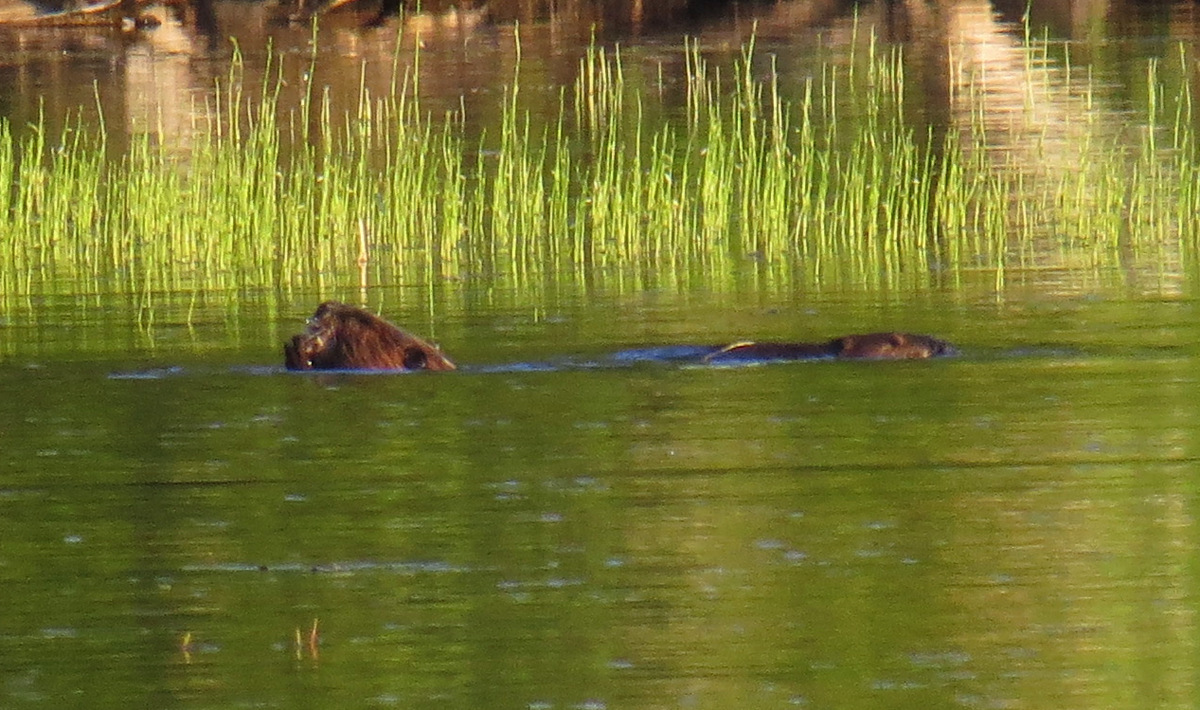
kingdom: Animalia
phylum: Chordata
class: Mammalia
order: Rodentia
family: Castoridae
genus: Castor
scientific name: Castor canadensis
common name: American beaver
